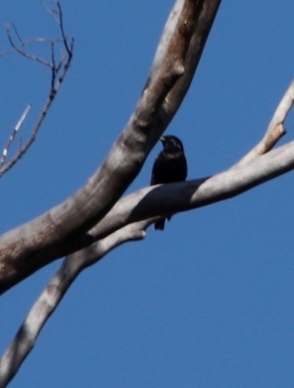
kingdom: Animalia
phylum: Chordata
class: Aves
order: Passeriformes
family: Sturnidae
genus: Sturnus
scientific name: Sturnus vulgaris
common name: Common starling
